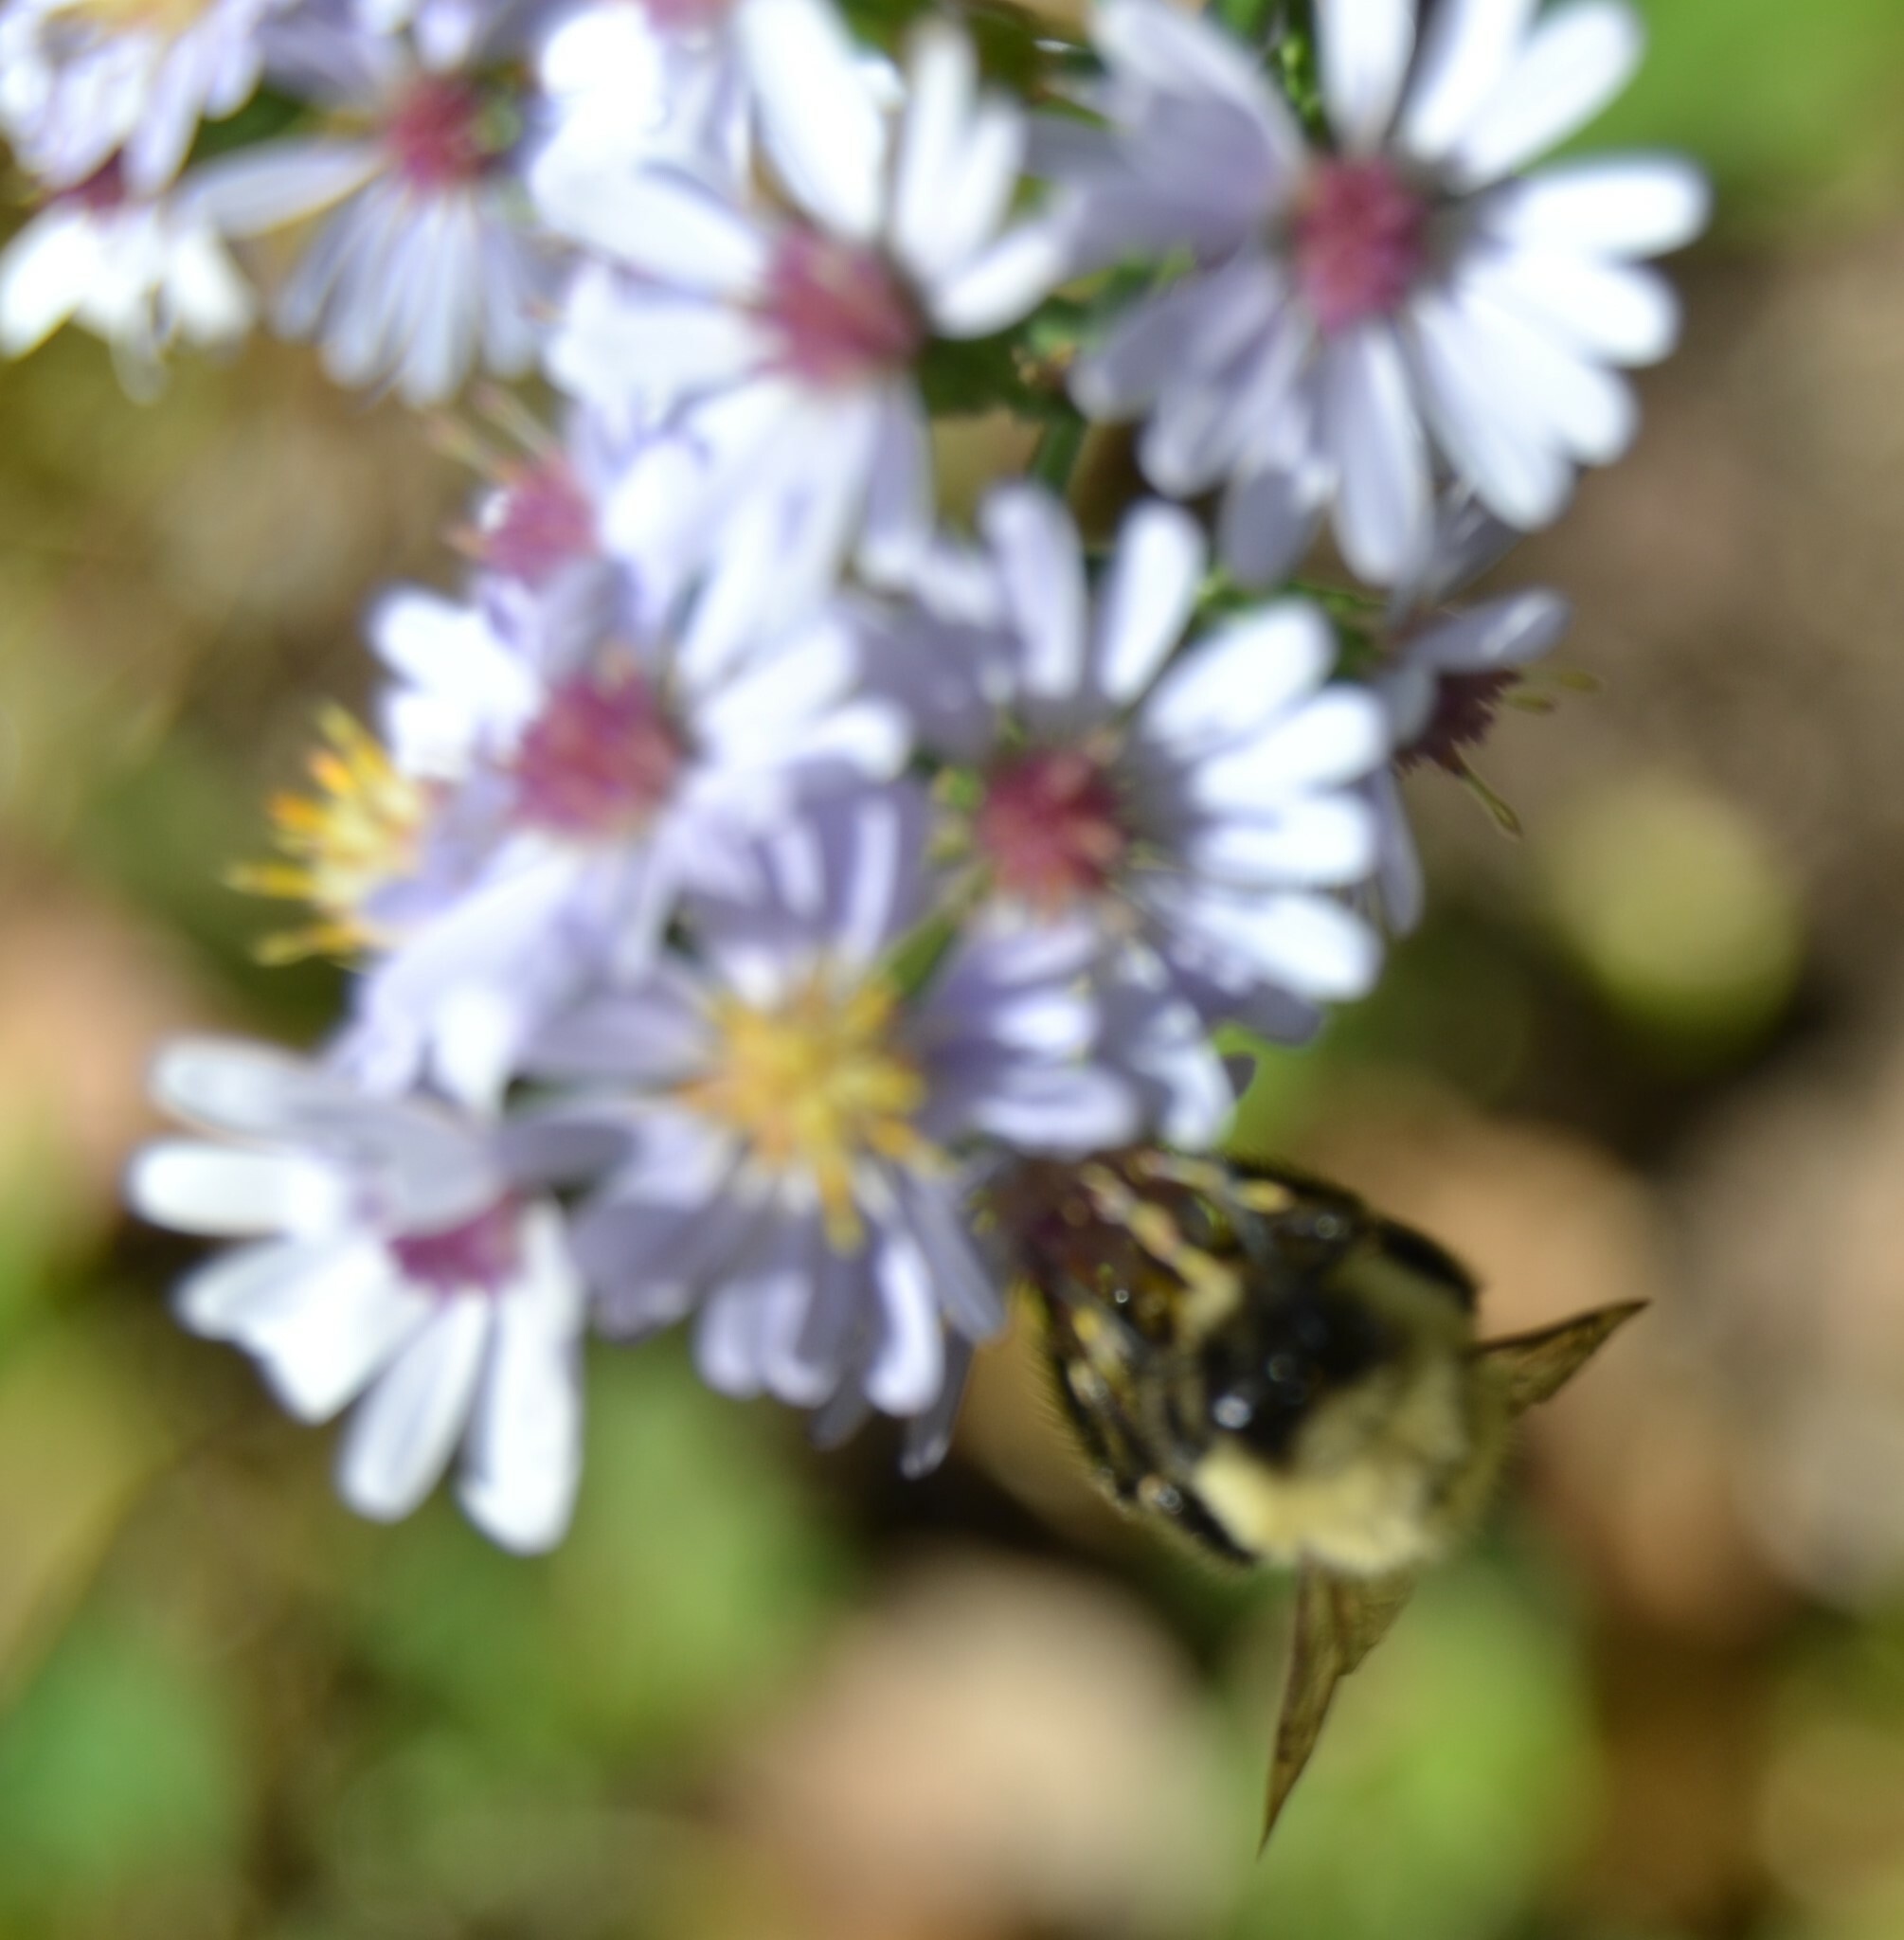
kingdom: Animalia
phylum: Arthropoda
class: Insecta
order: Hymenoptera
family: Apidae
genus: Bombus
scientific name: Bombus impatiens
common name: Common eastern bumble bee
